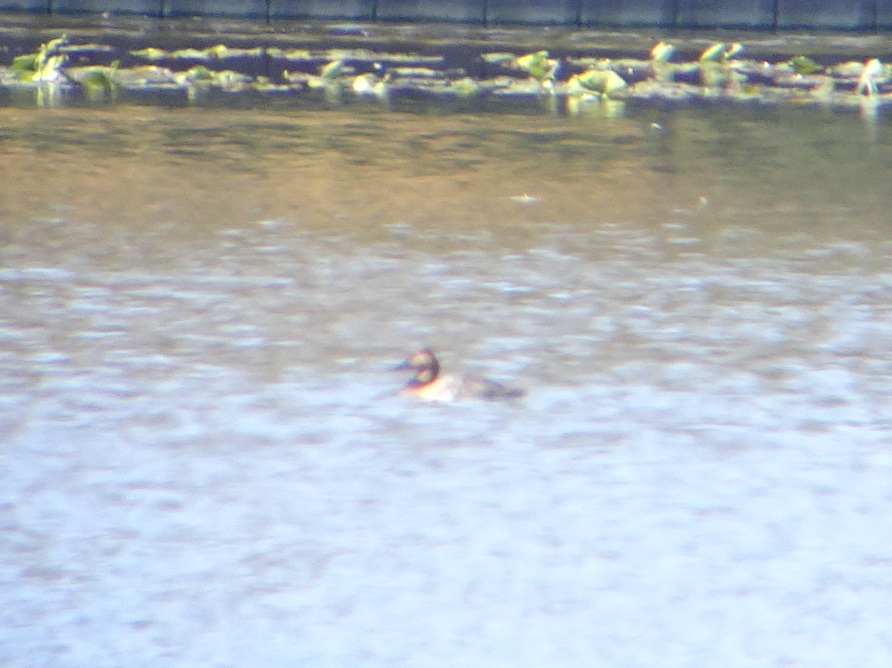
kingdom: Animalia
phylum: Chordata
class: Aves
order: Anseriformes
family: Anatidae
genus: Aythya
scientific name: Aythya valisineria
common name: Canvasback
